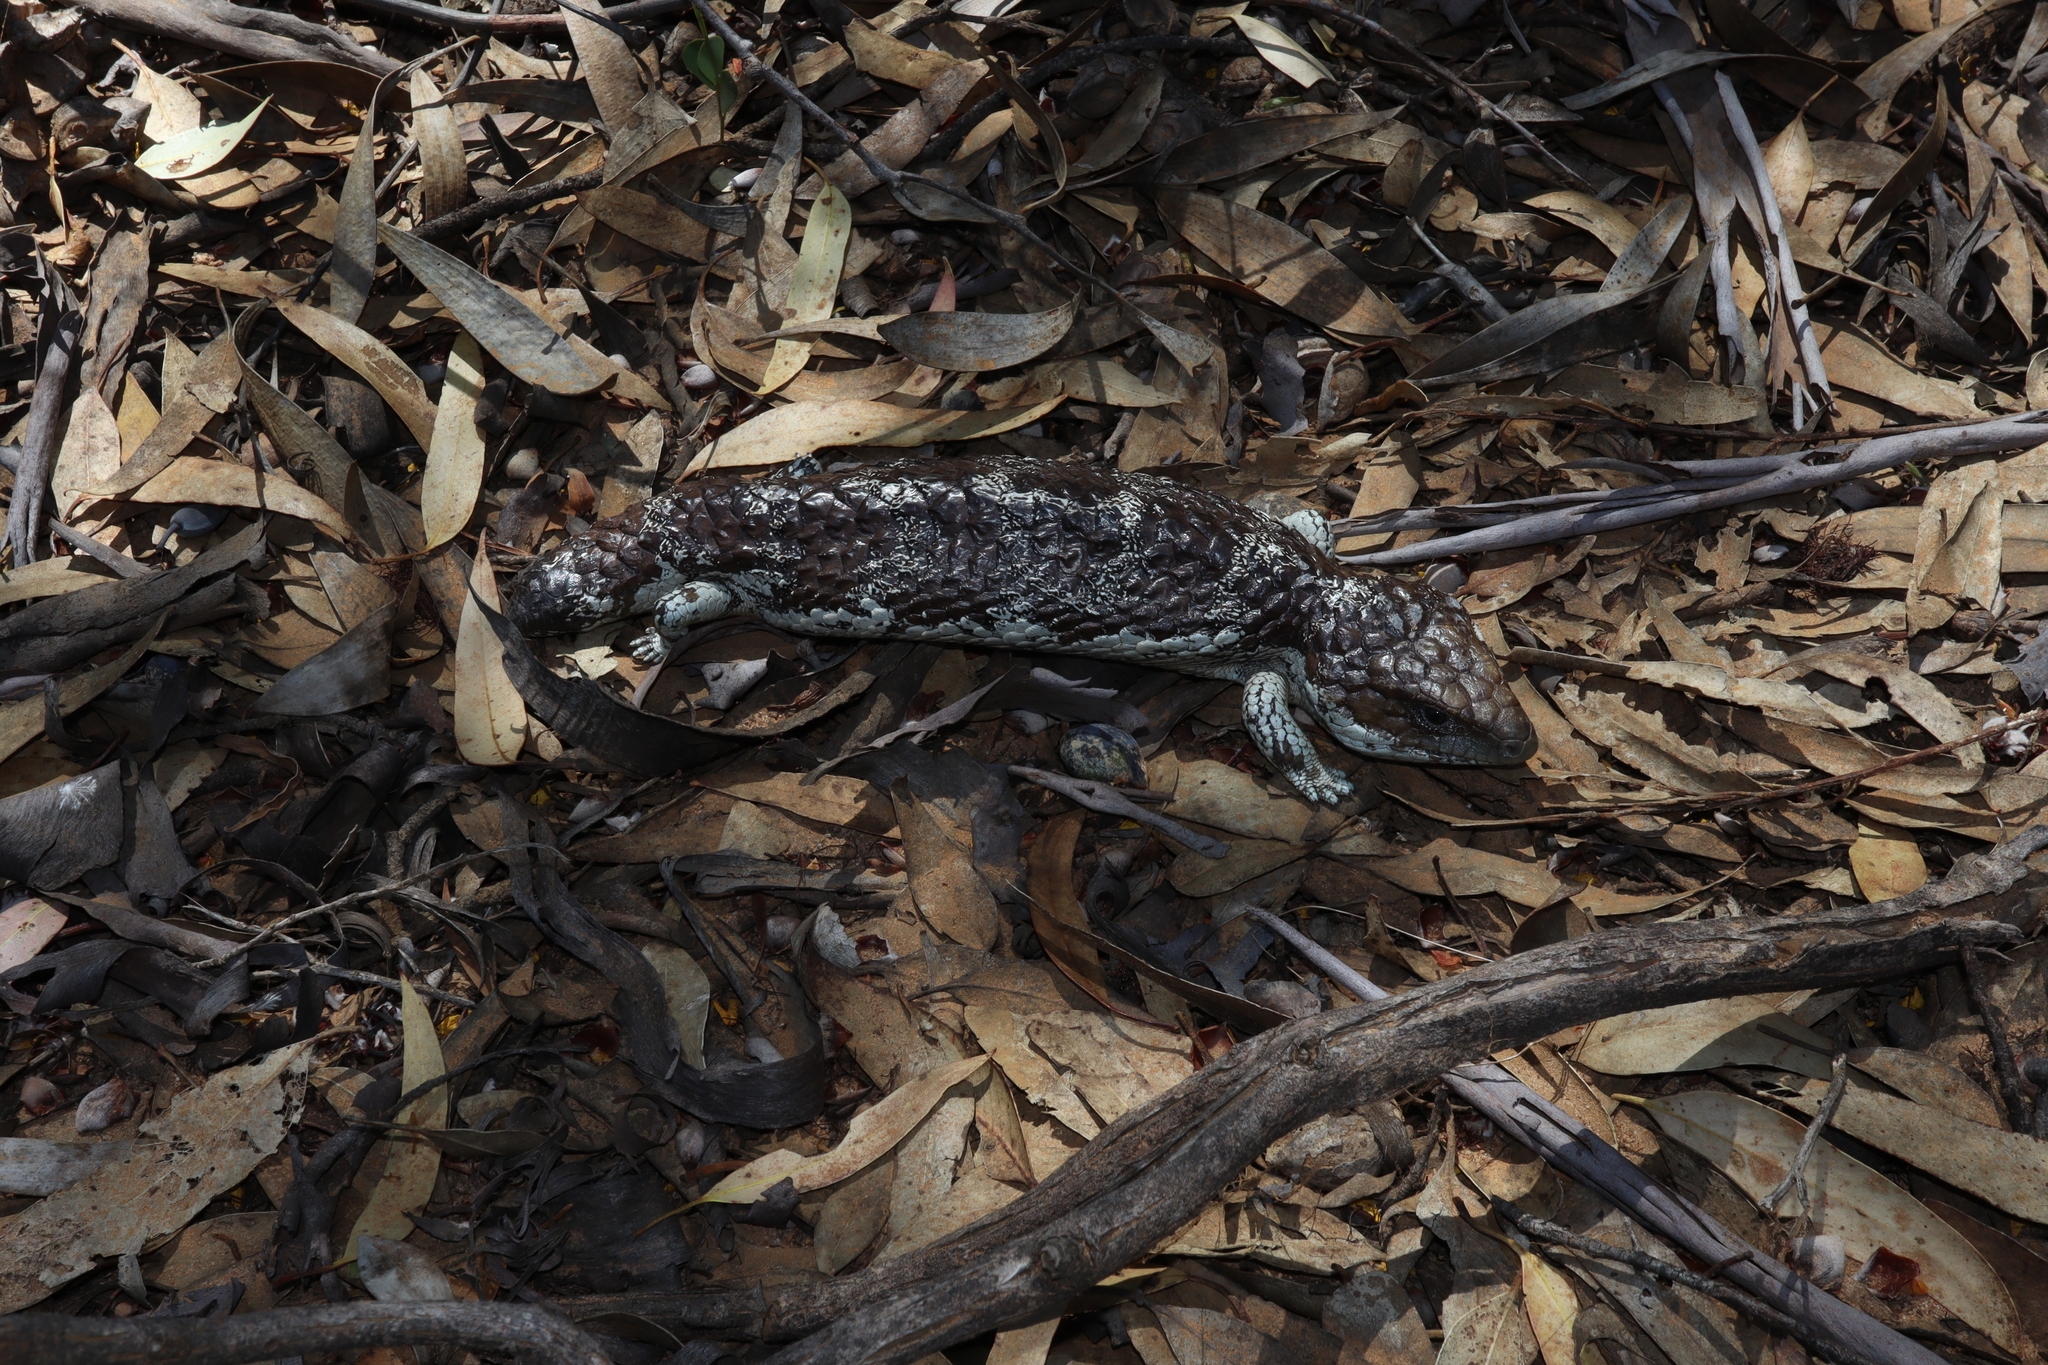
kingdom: Animalia
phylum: Chordata
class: Squamata
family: Scincidae
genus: Tiliqua
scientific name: Tiliqua rugosa
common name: Pinecone lizard
